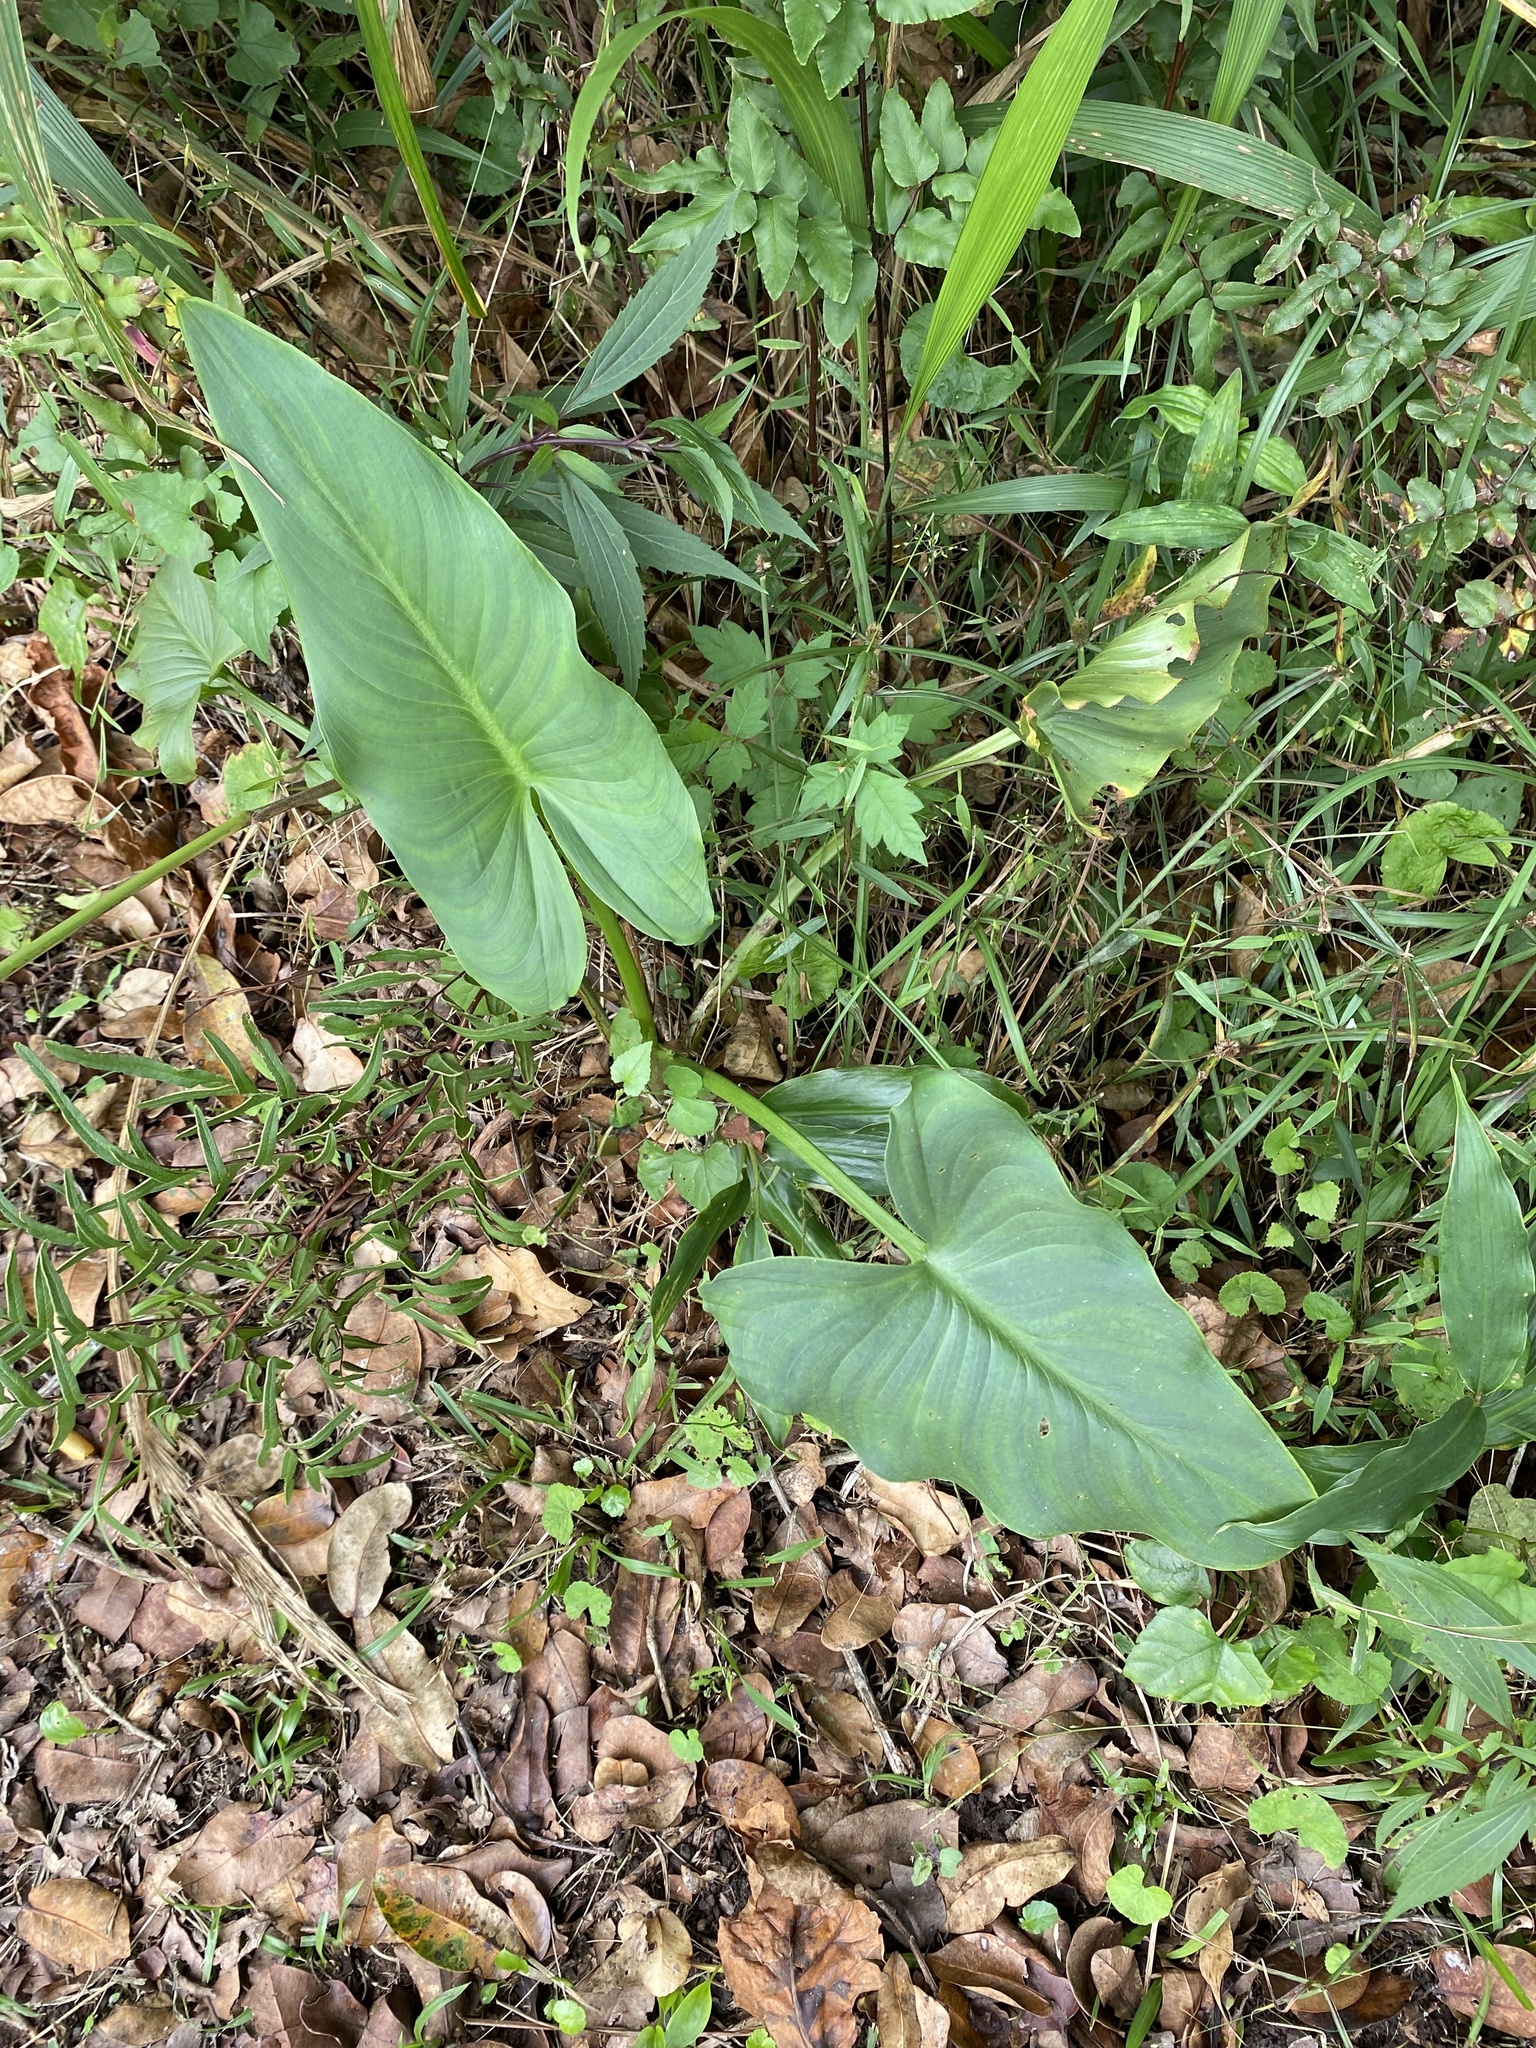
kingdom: Plantae
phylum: Tracheophyta
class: Liliopsida
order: Alismatales
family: Araceae
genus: Zantedeschia
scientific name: Zantedeschia aethiopica
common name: Altar-lily
